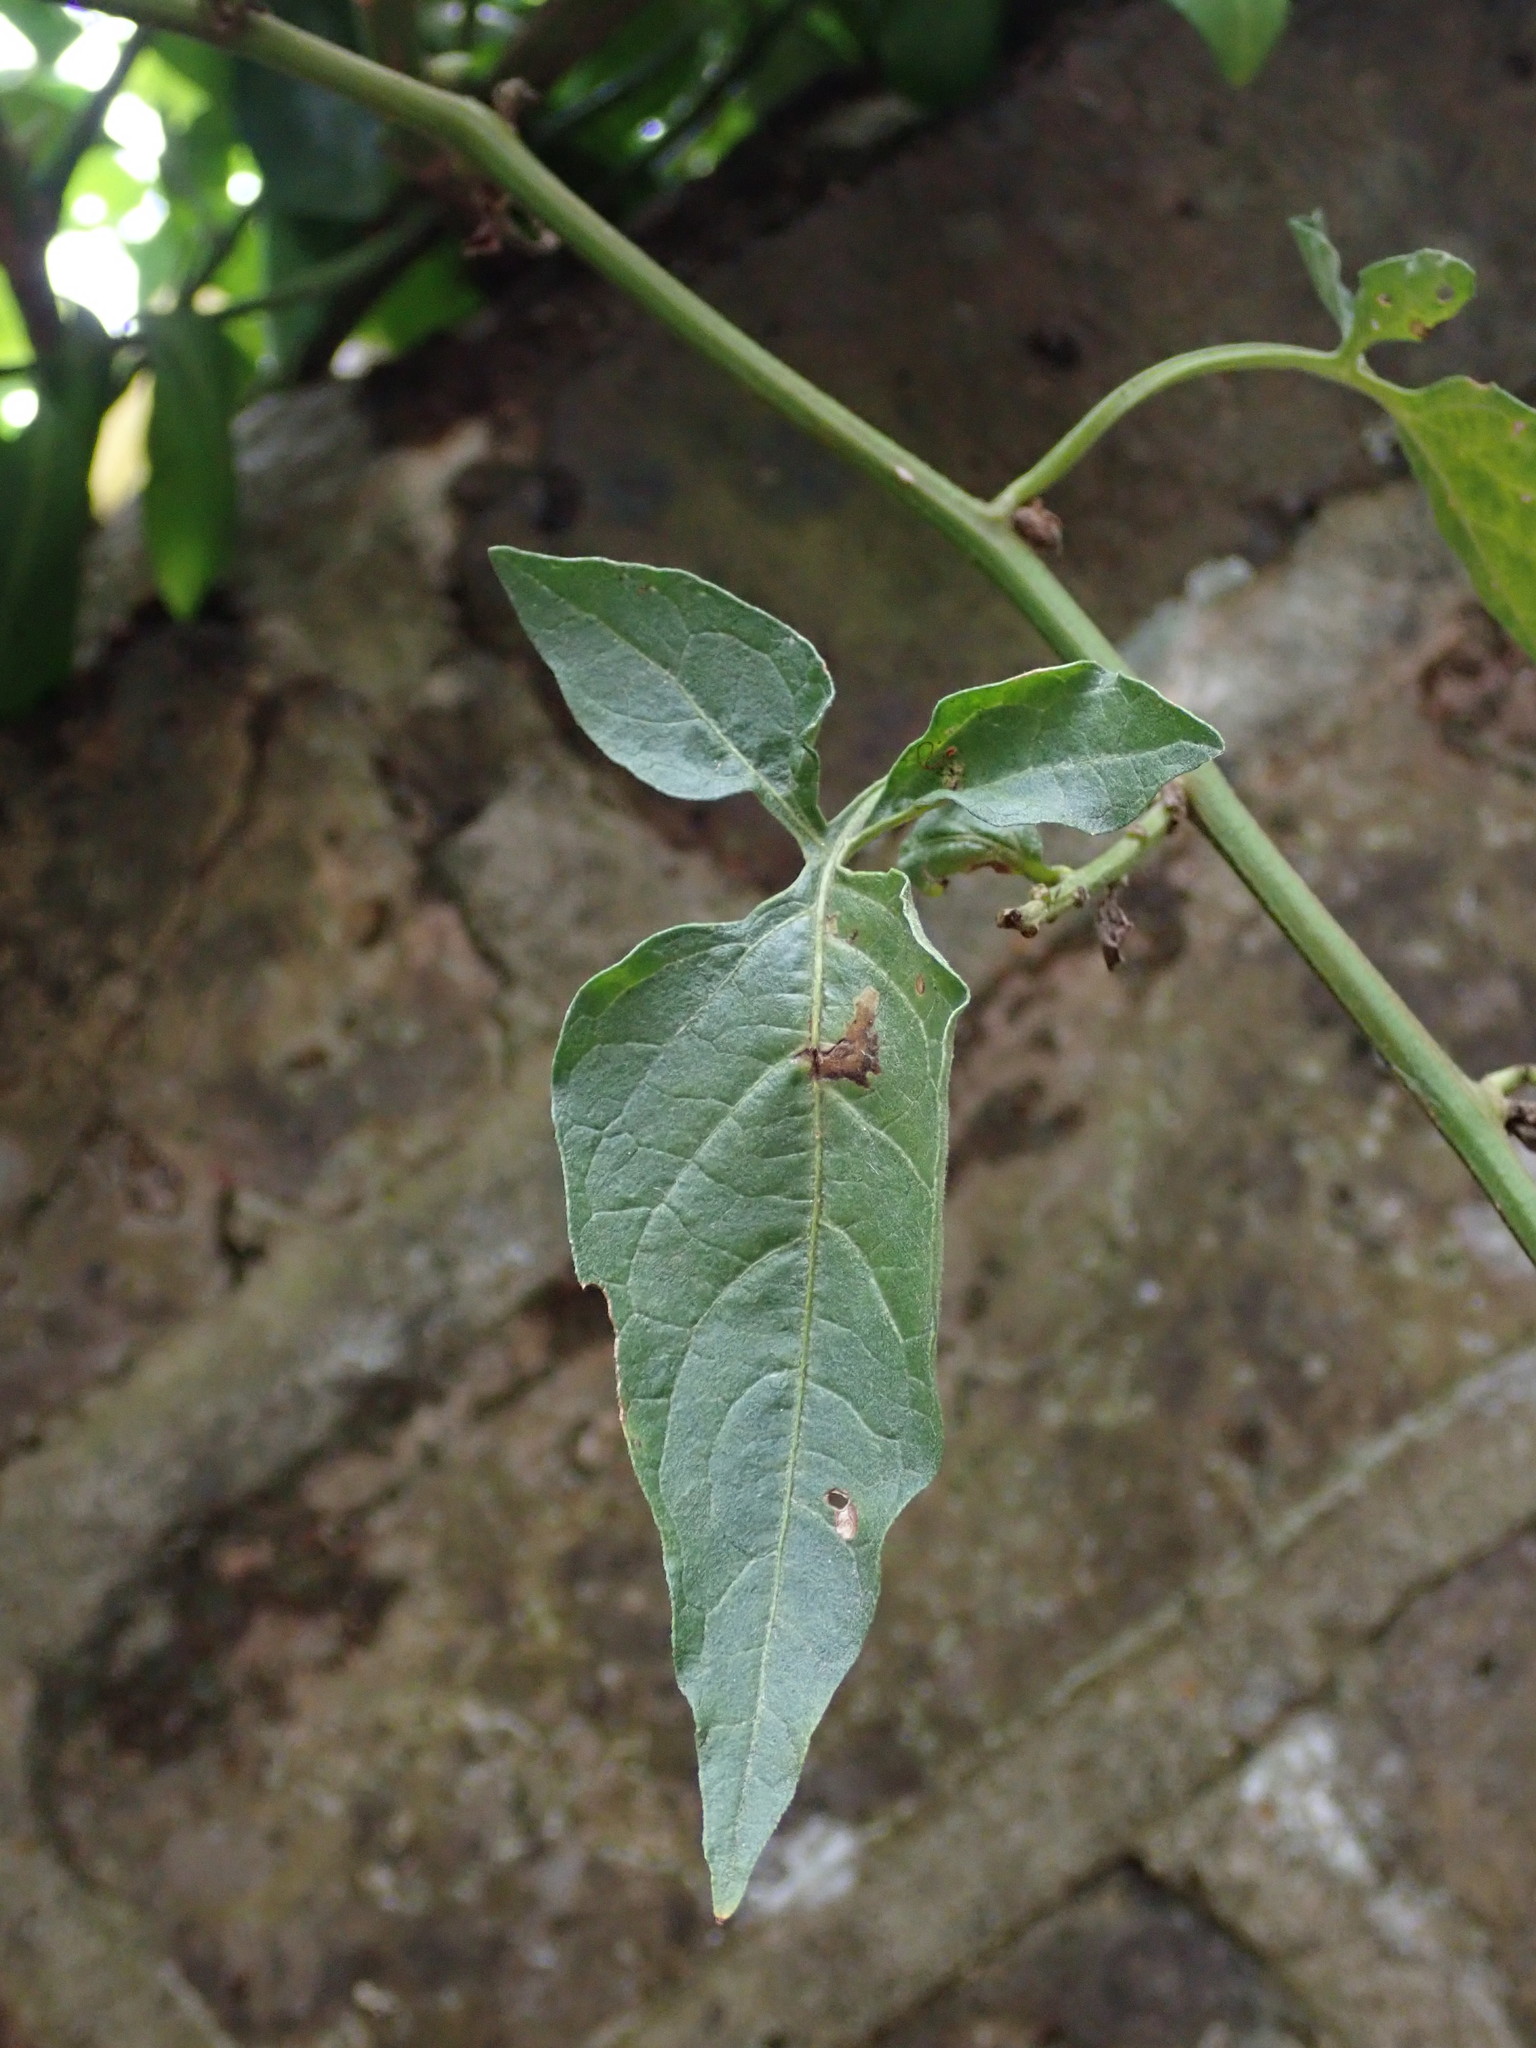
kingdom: Plantae
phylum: Tracheophyta
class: Magnoliopsida
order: Solanales
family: Solanaceae
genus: Solanum
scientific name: Solanum dulcamara
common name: Climbing nightshade
